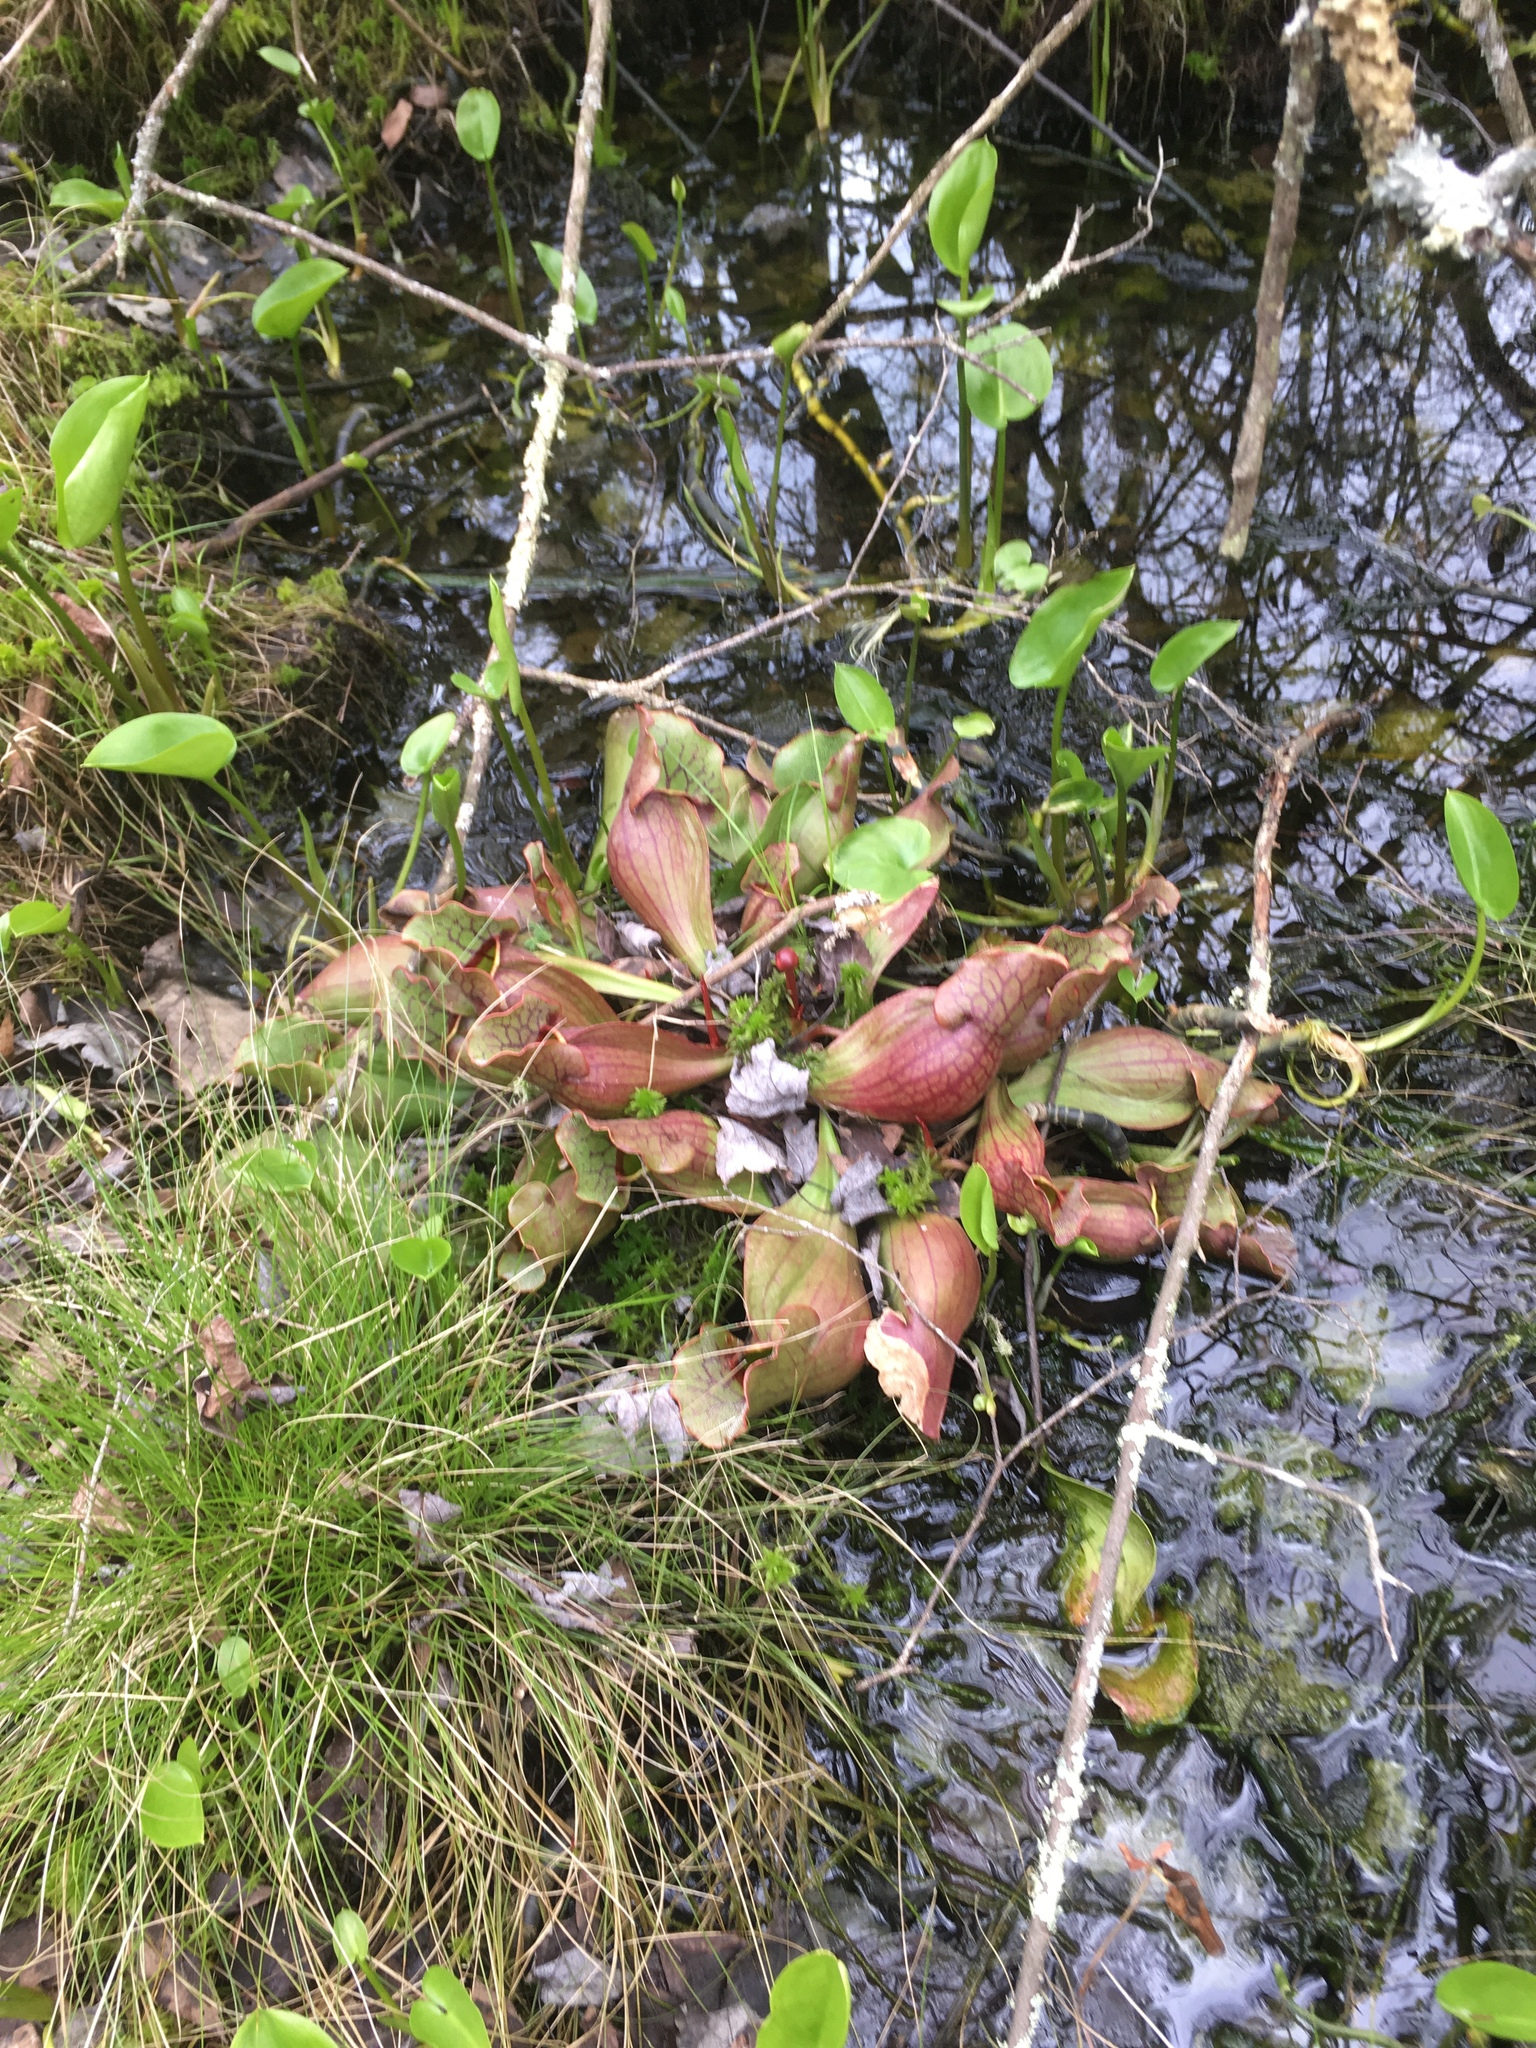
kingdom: Plantae
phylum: Tracheophyta
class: Magnoliopsida
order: Ericales
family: Sarraceniaceae
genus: Sarracenia
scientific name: Sarracenia purpurea
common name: Pitcherplant
